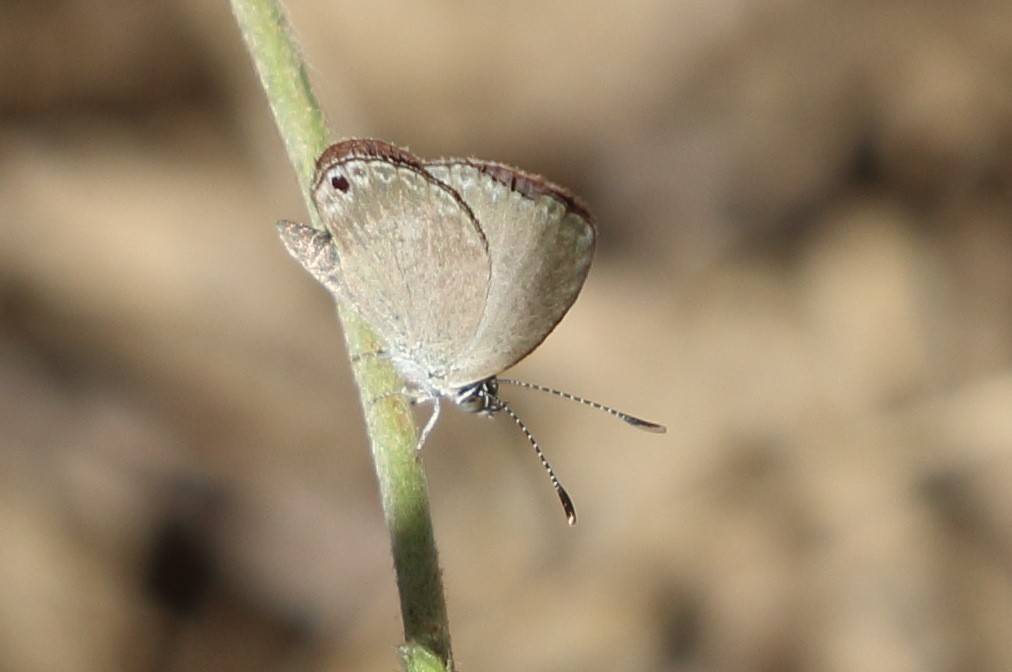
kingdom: Animalia
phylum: Arthropoda
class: Insecta
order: Lepidoptera
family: Lycaenidae
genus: Cupido
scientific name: Cupido nisa
